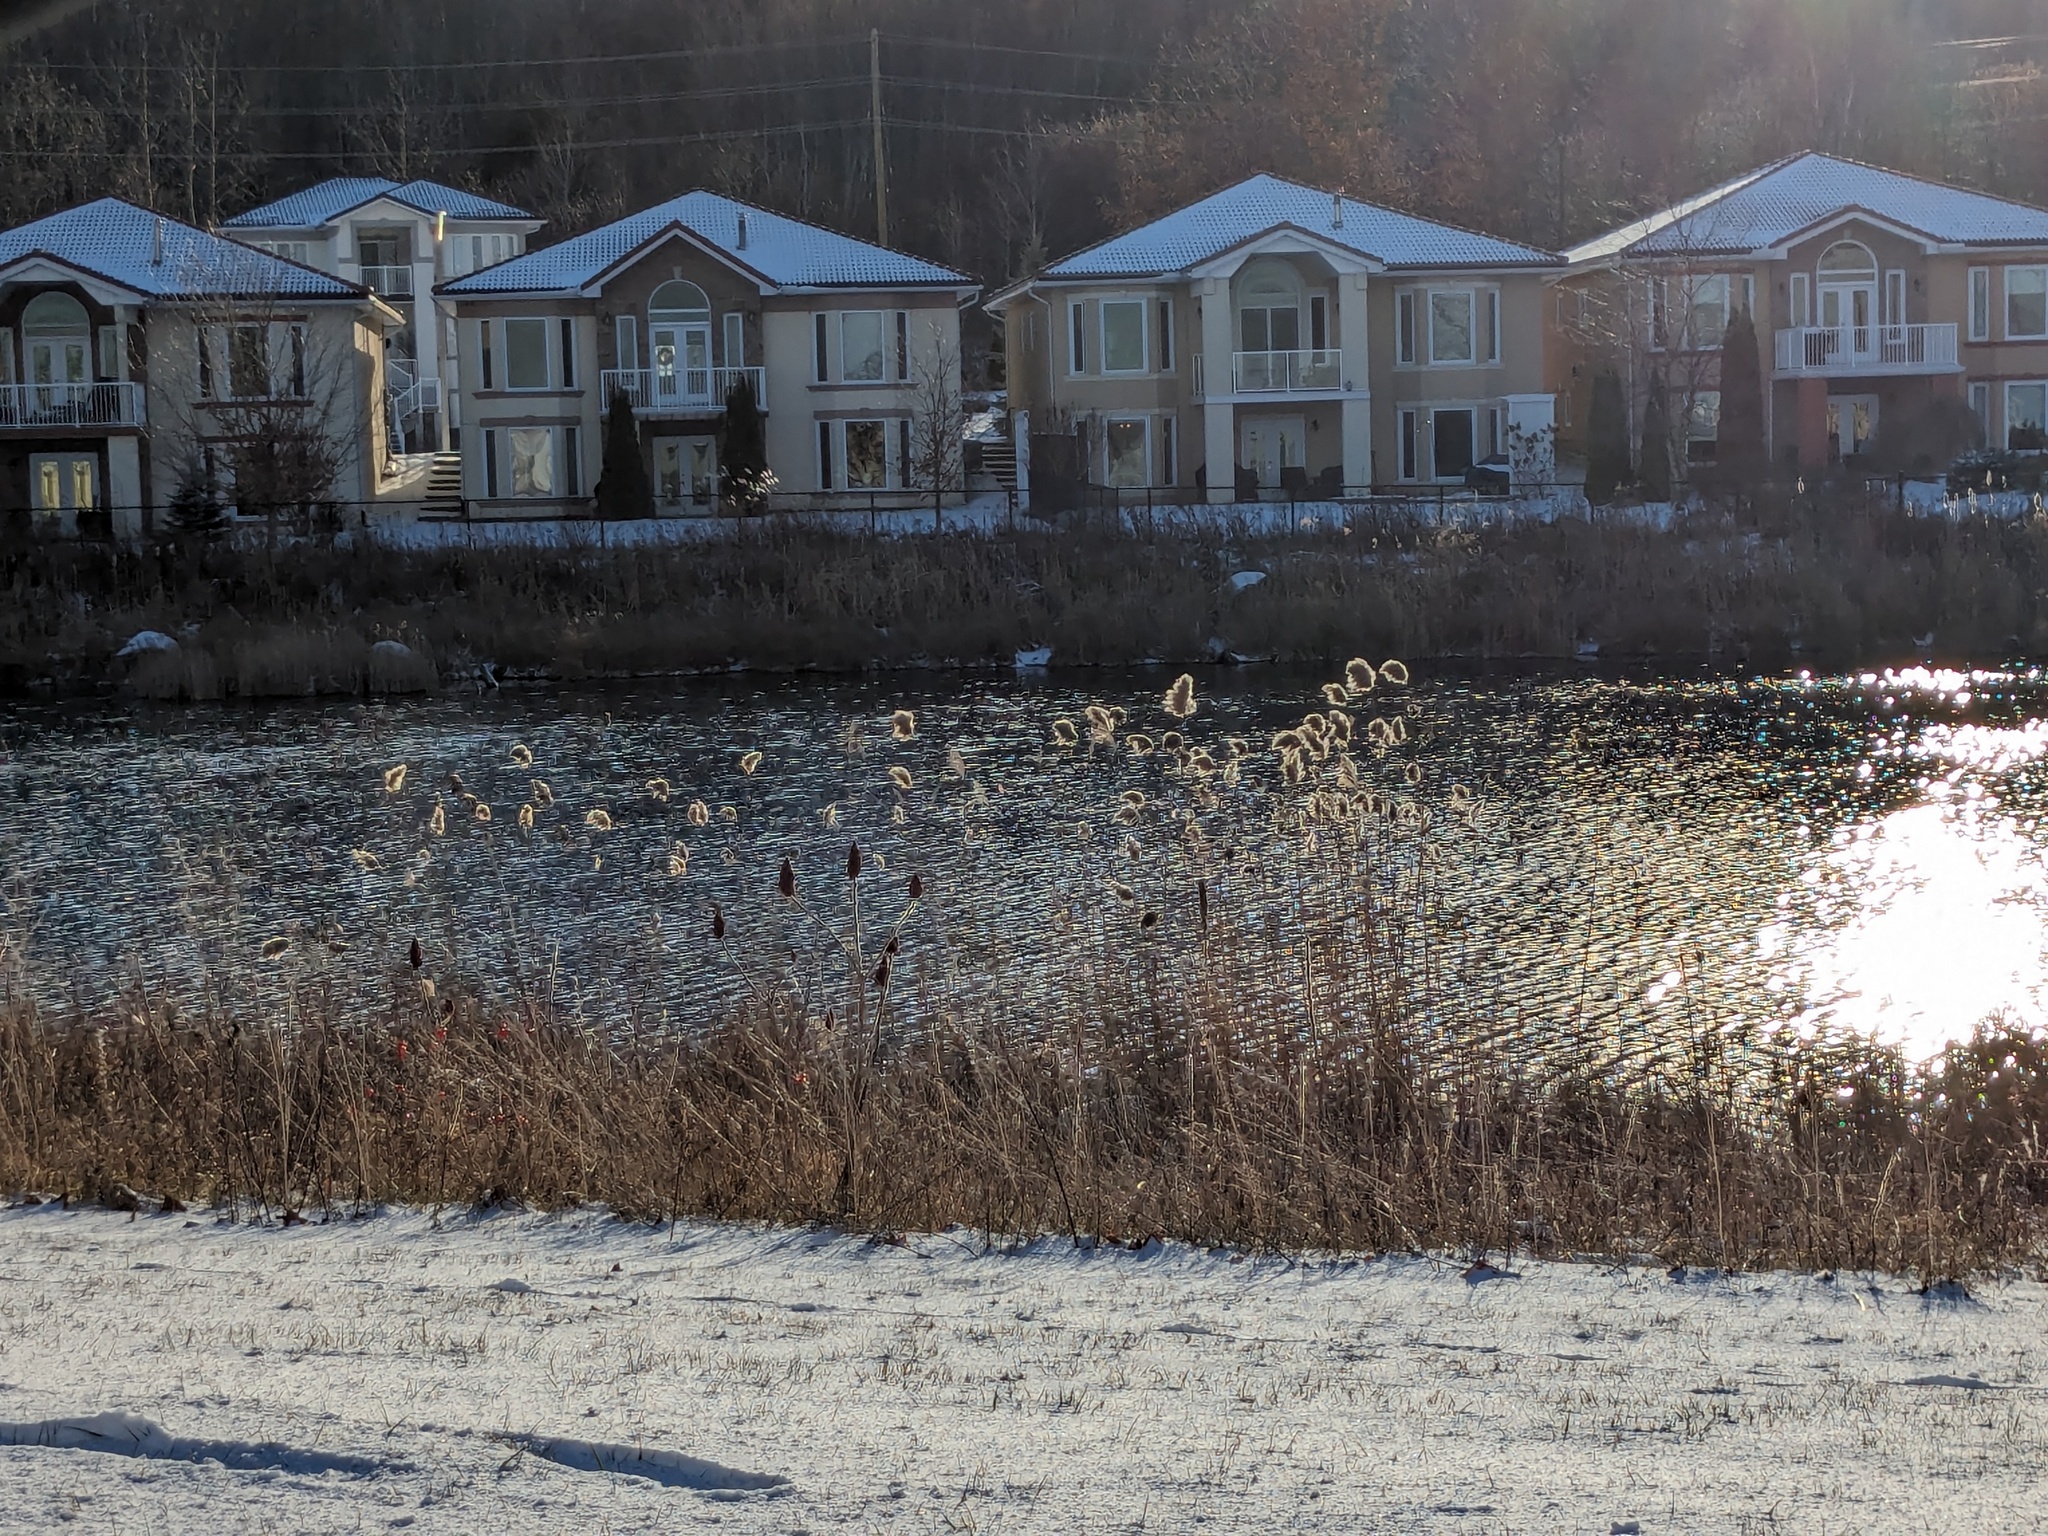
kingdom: Plantae
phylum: Tracheophyta
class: Liliopsida
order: Poales
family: Poaceae
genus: Phragmites
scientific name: Phragmites australis
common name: Common reed
